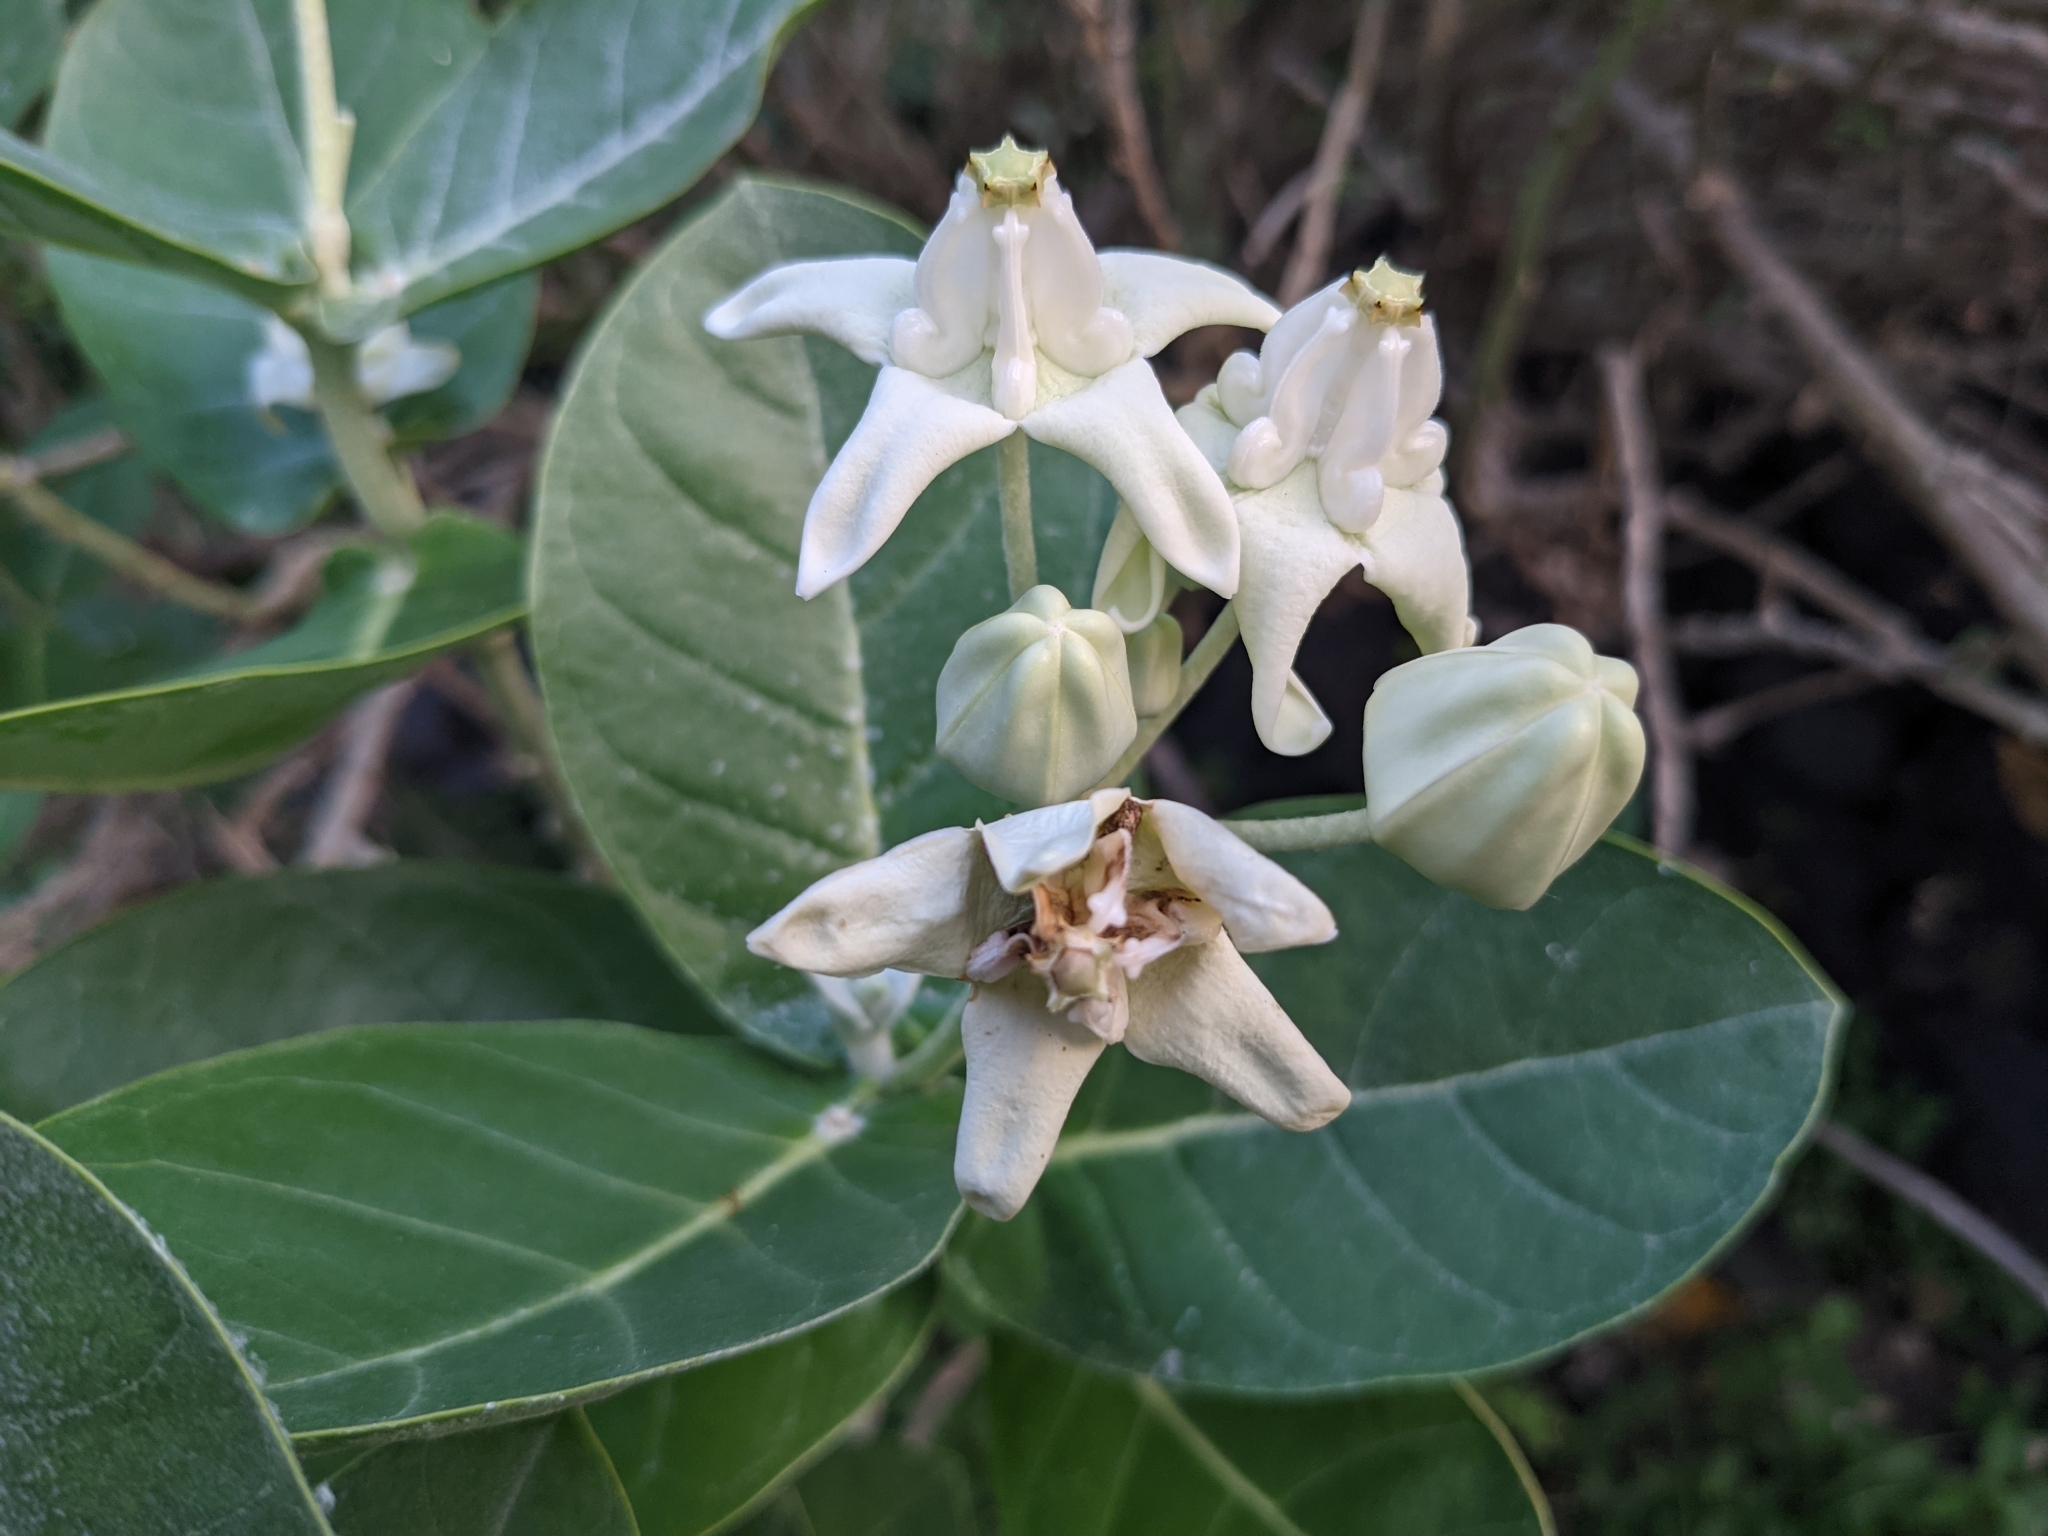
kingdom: Plantae
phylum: Tracheophyta
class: Magnoliopsida
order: Gentianales
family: Apocynaceae
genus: Calotropis
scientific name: Calotropis gigantea
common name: Crown flower
